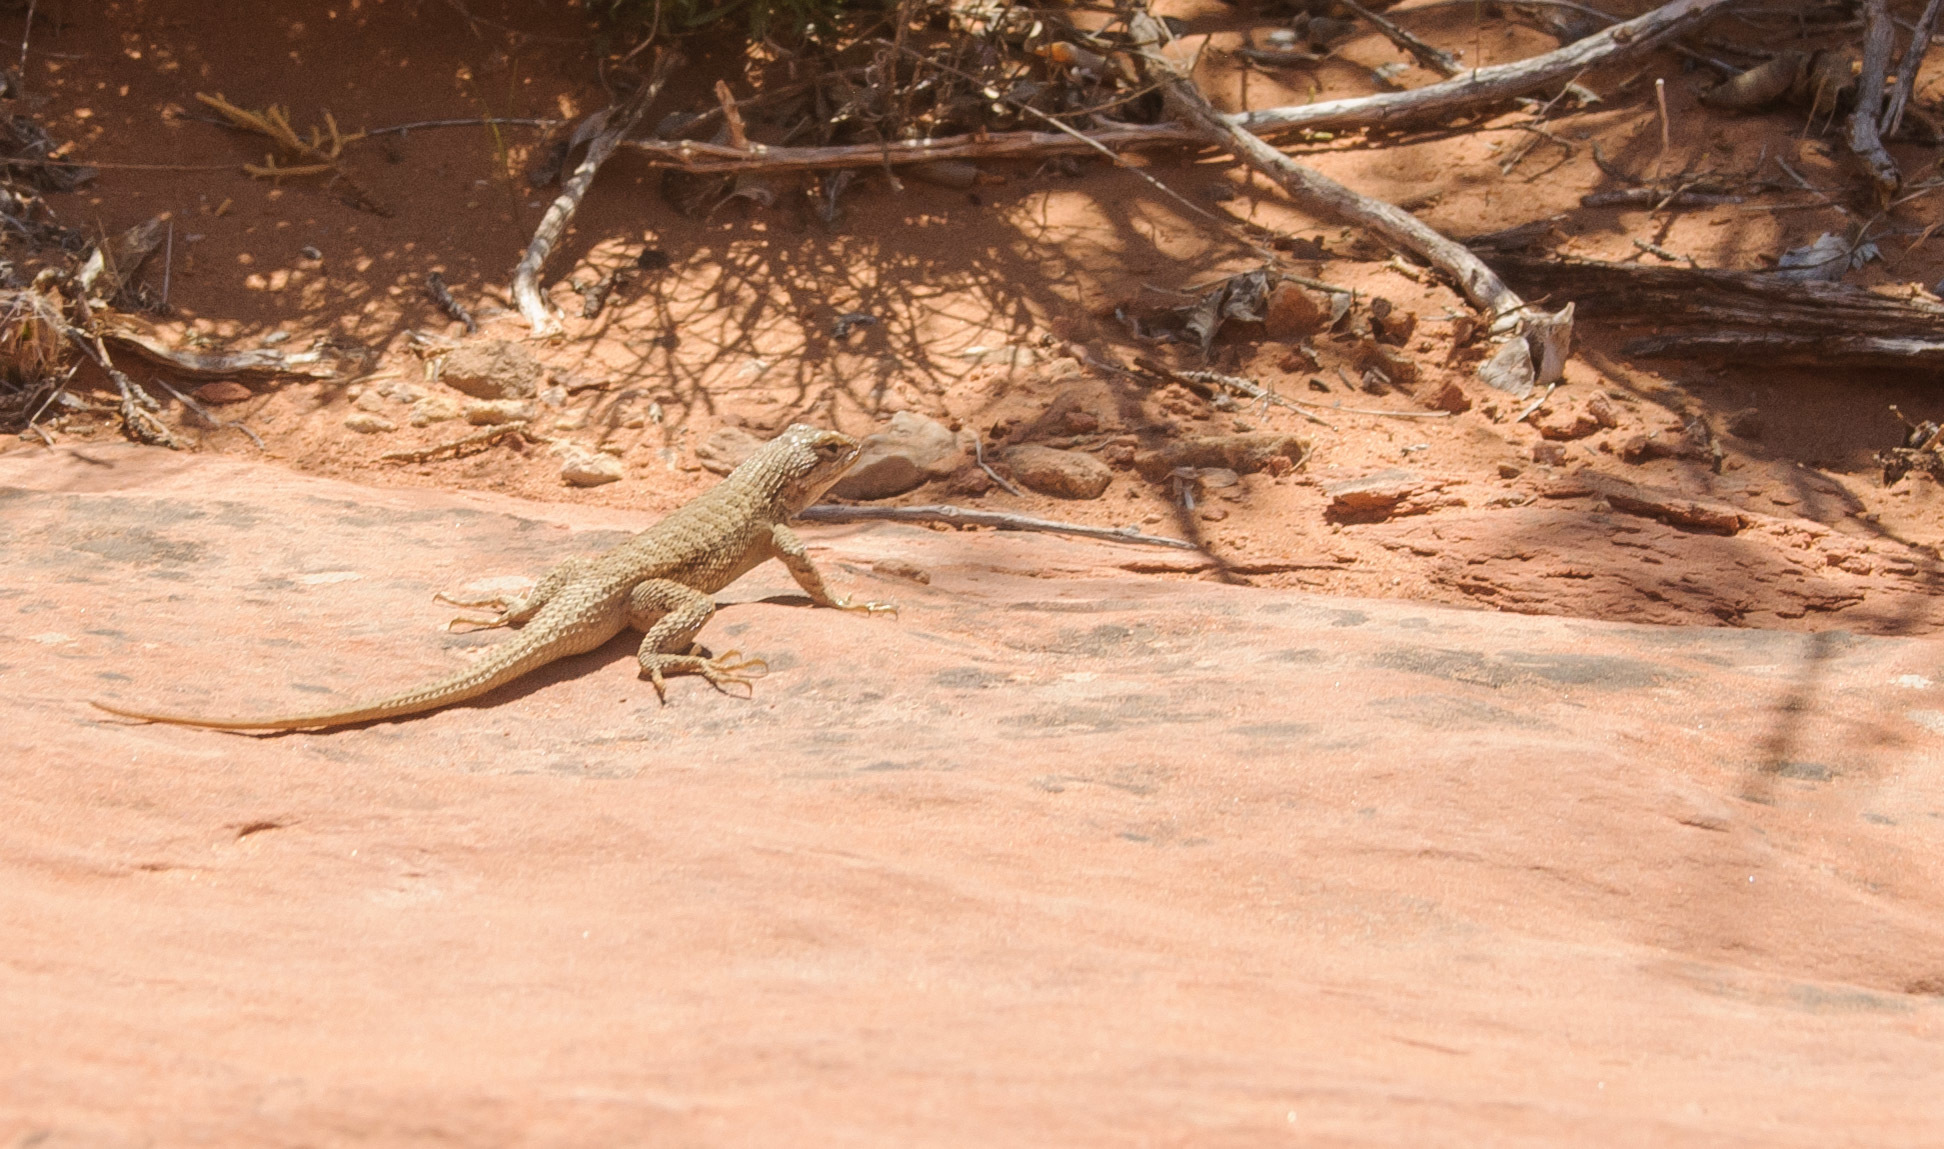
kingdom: Animalia
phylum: Chordata
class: Squamata
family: Phrynosomatidae
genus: Sceloporus
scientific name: Sceloporus tristichus
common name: Plateau fence lizard
